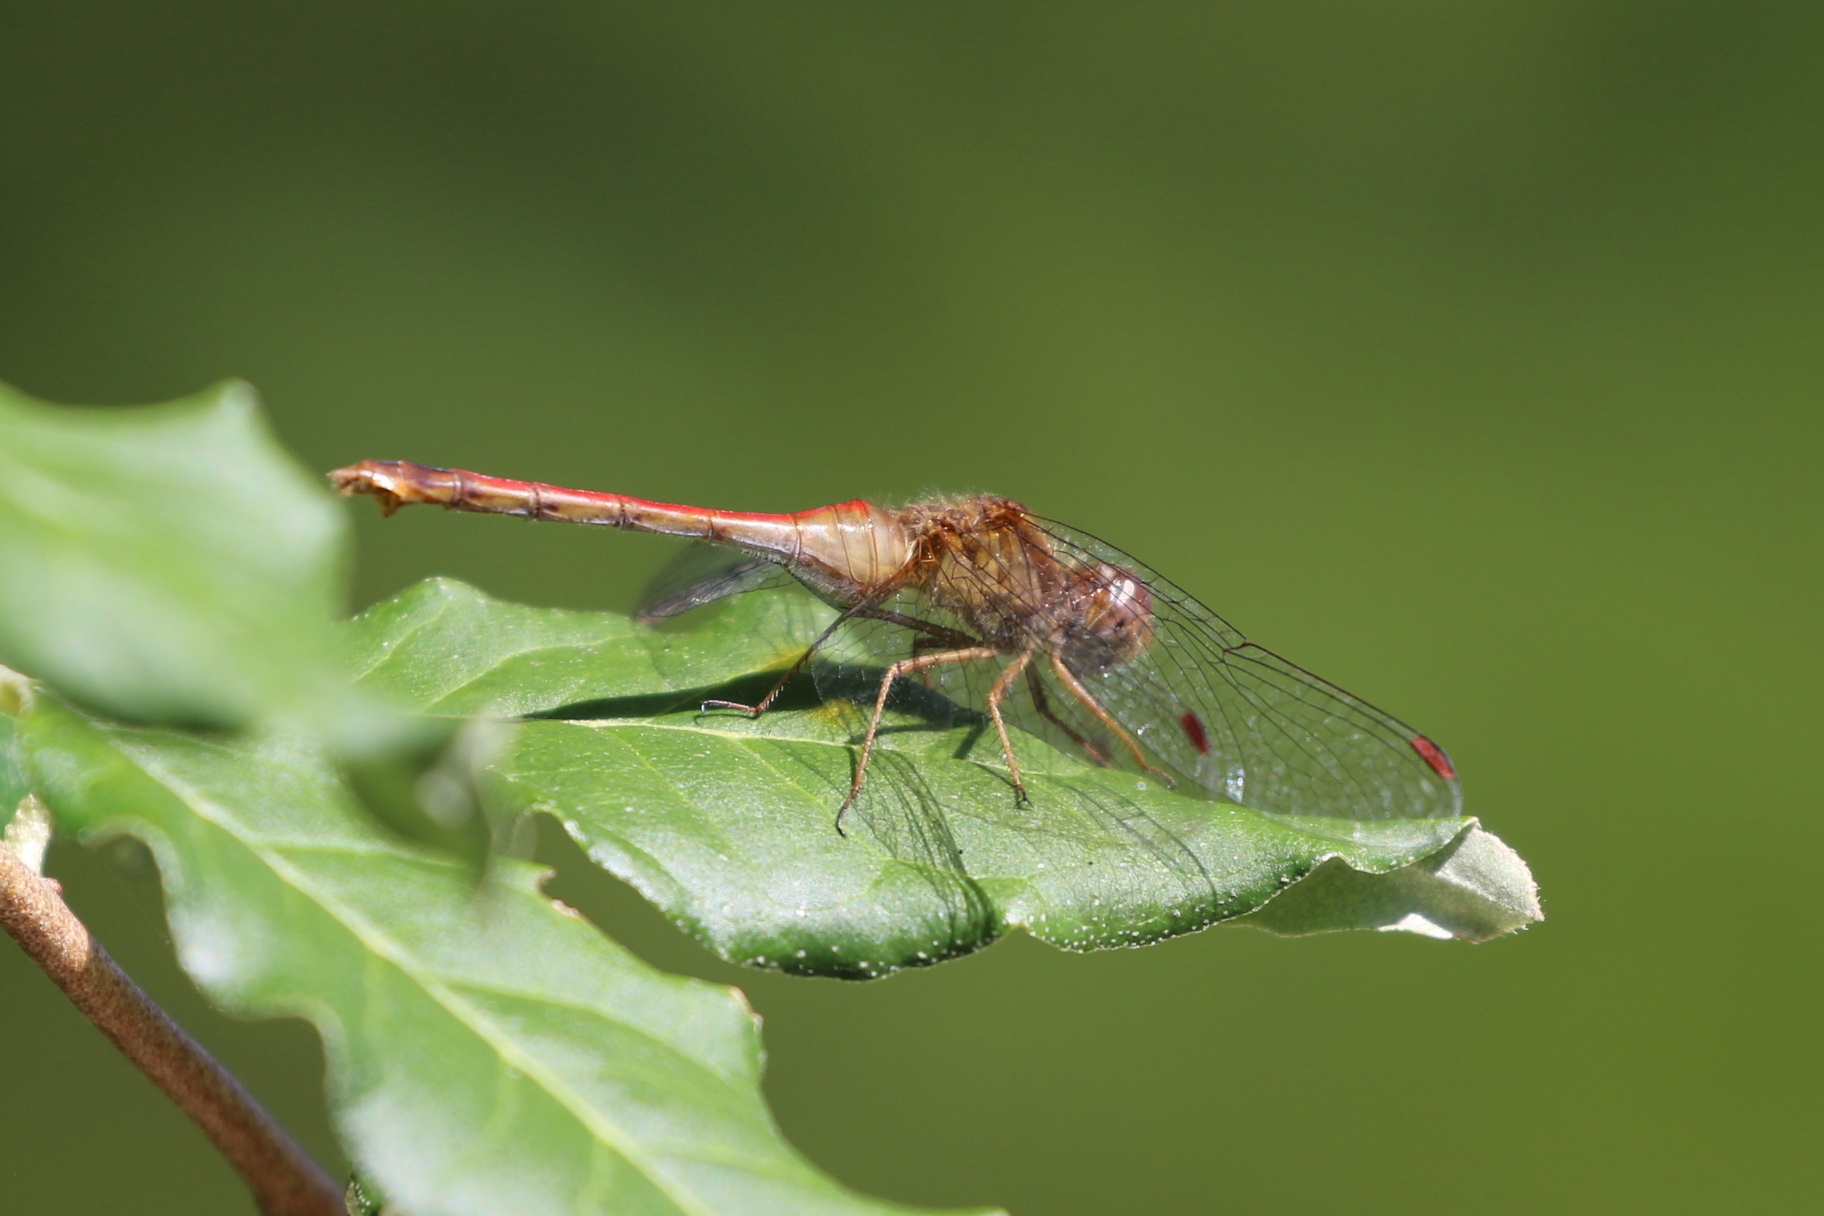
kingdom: Animalia
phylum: Arthropoda
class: Insecta
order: Odonata
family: Libellulidae
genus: Sympetrum
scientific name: Sympetrum vicinum
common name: Autumn meadowhawk
